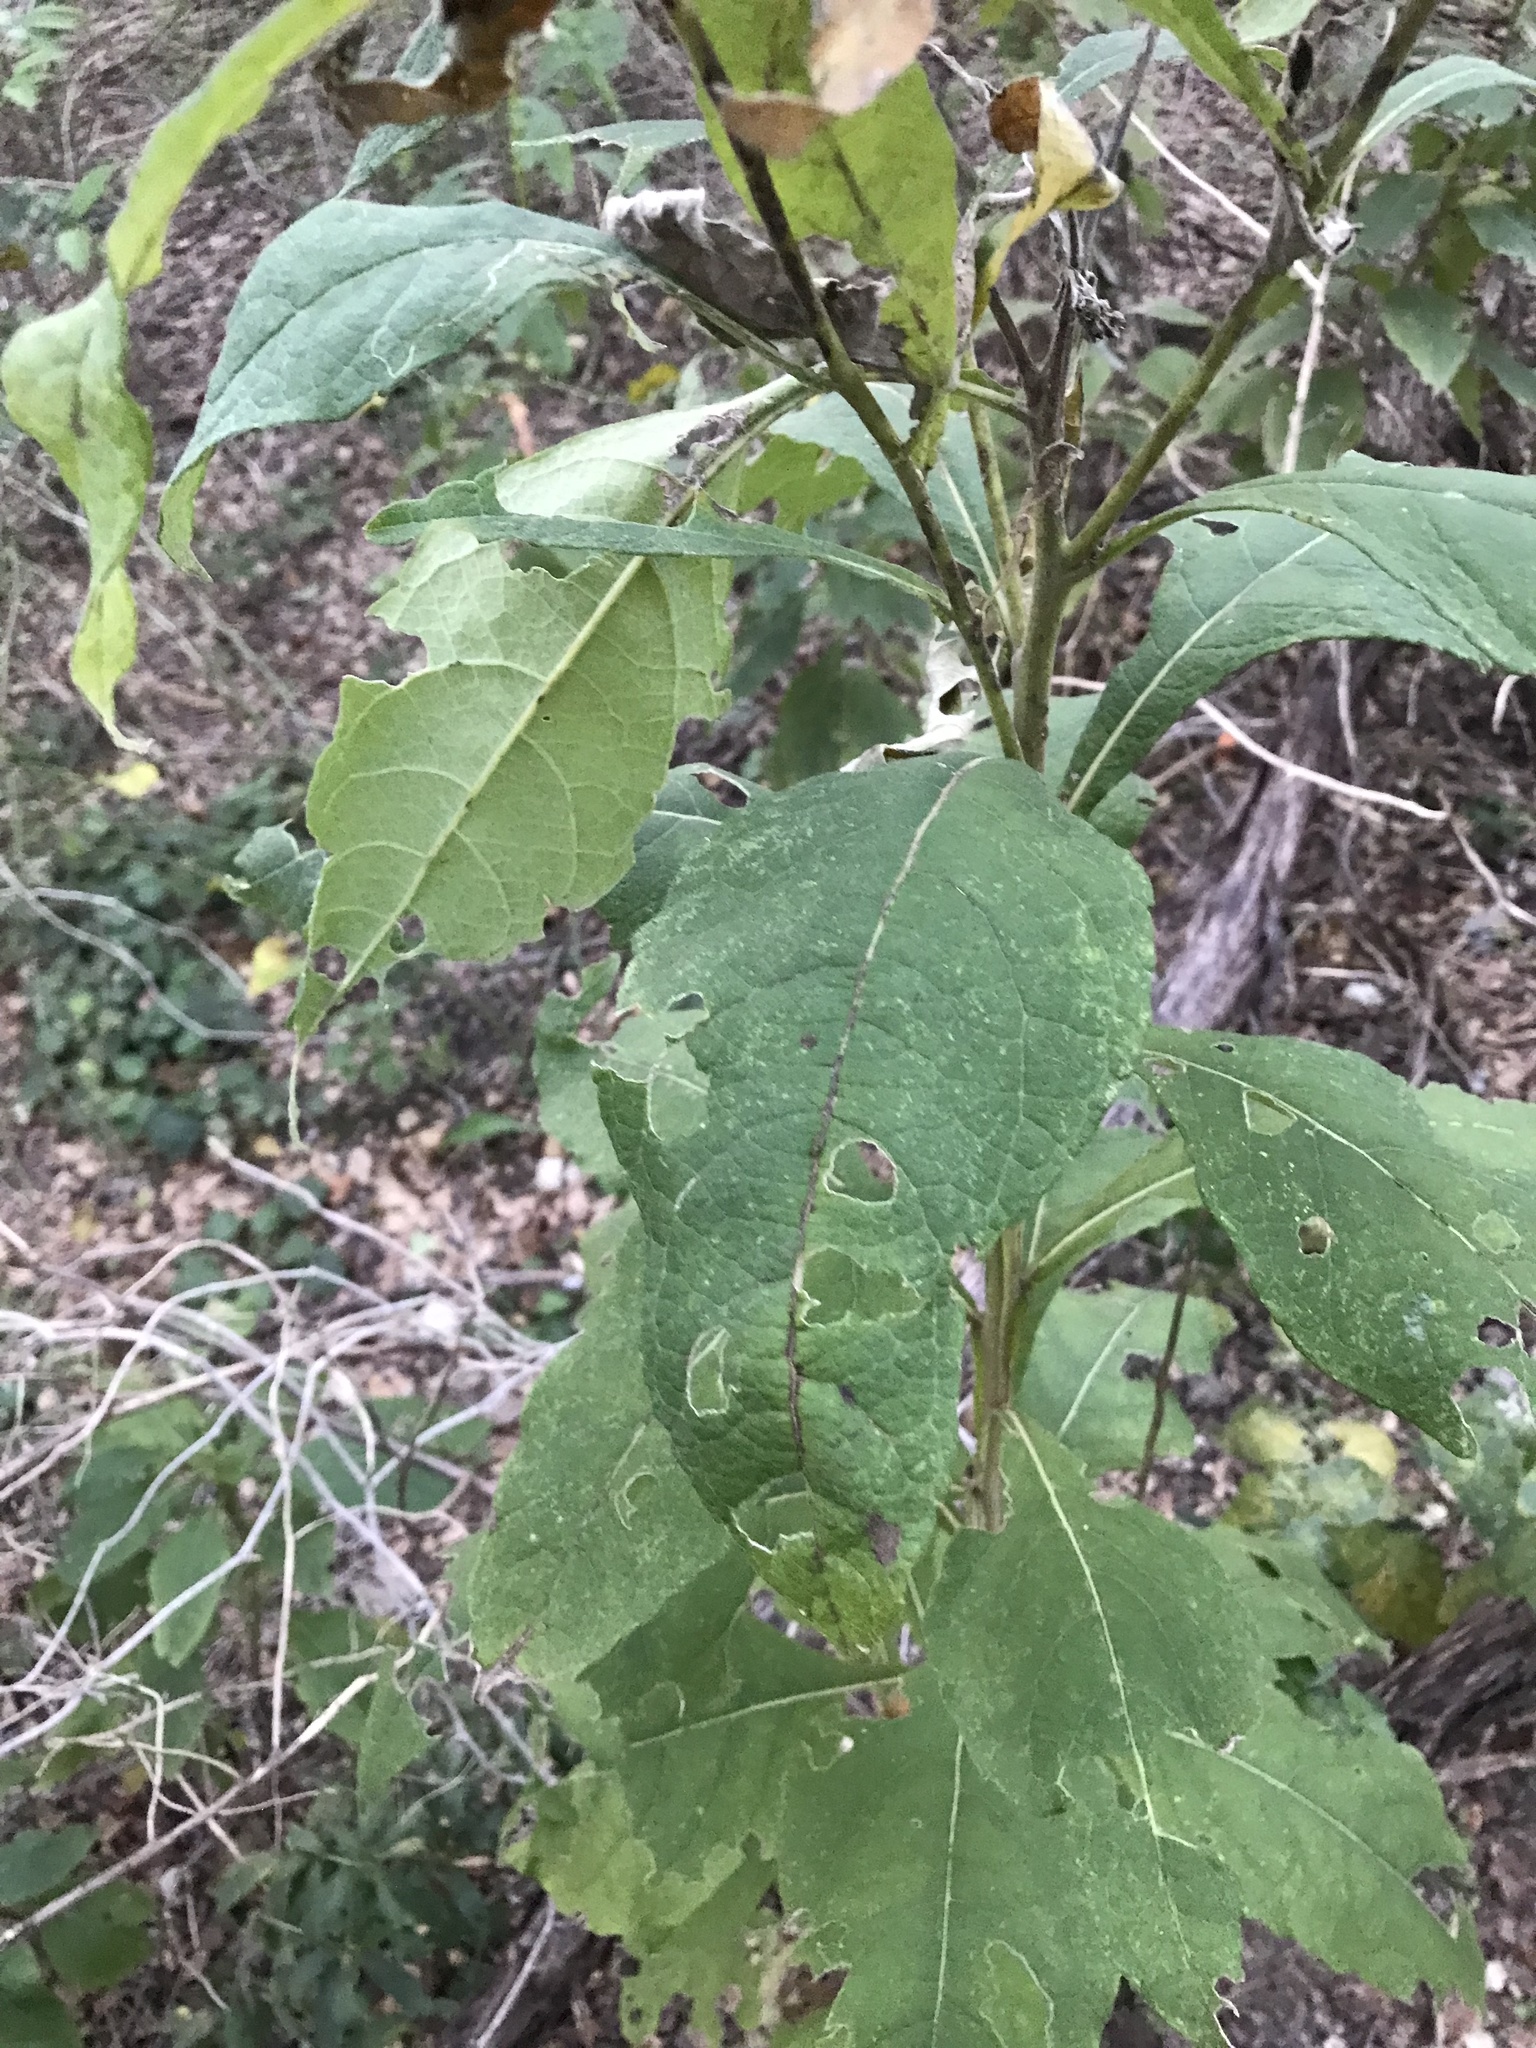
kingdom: Plantae
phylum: Tracheophyta
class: Magnoliopsida
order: Asterales
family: Asteraceae
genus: Verbesina
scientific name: Verbesina virginica
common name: Frostweed
